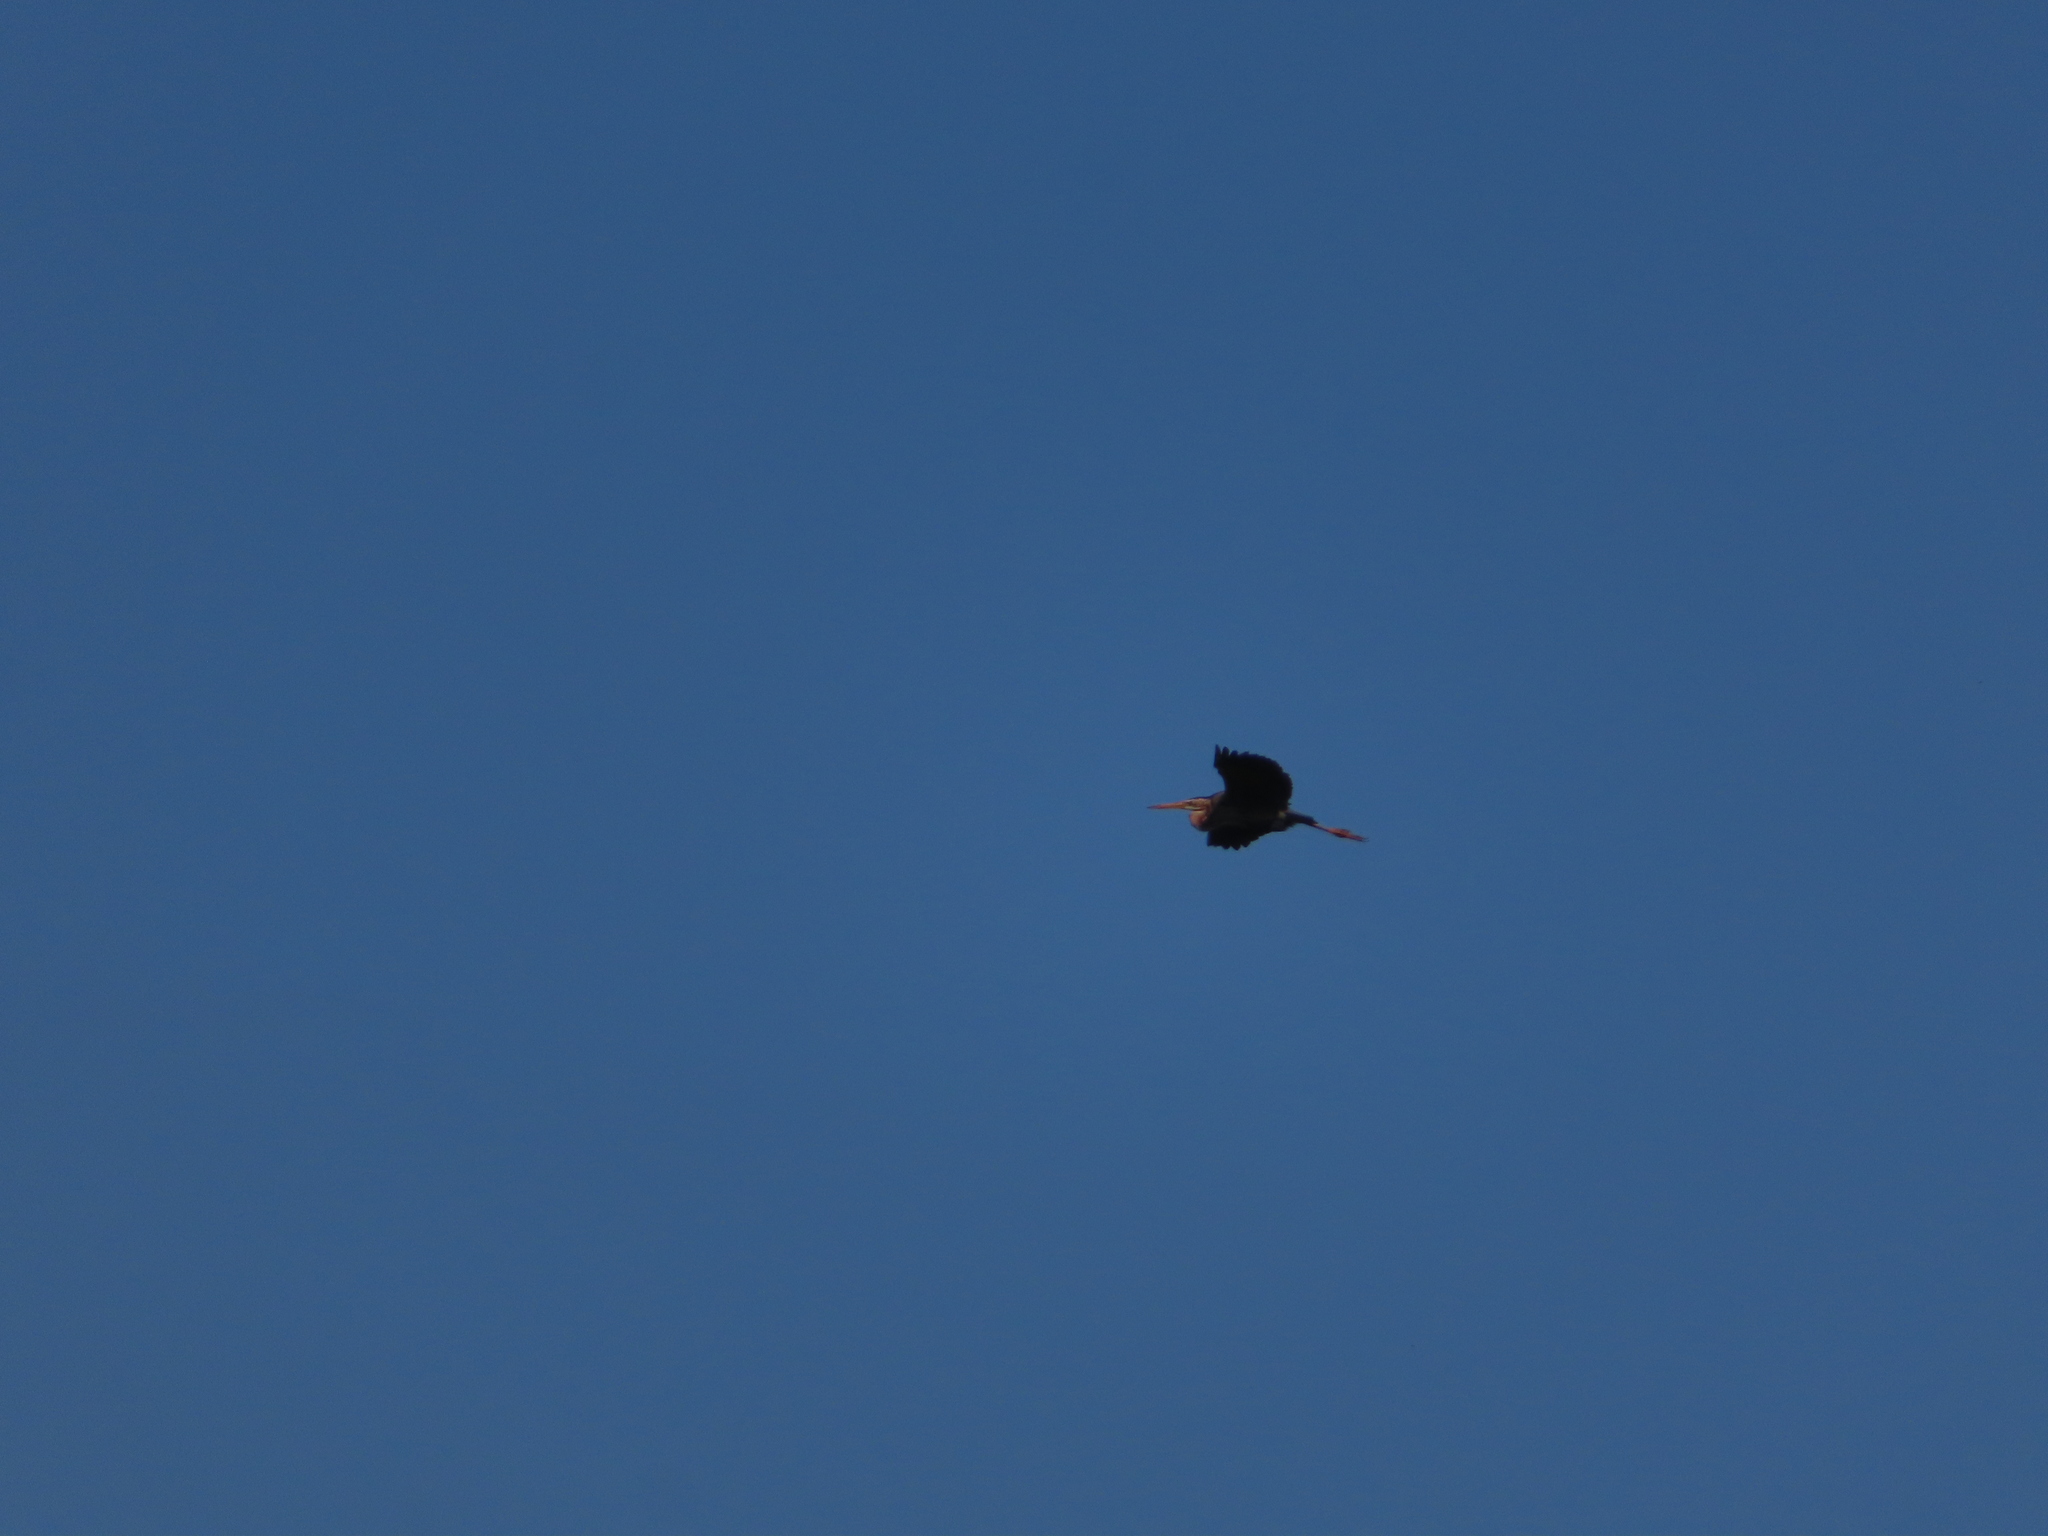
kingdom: Animalia
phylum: Chordata
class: Aves
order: Pelecaniformes
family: Ardeidae
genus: Ardea
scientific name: Ardea purpurea
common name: Purple heron
